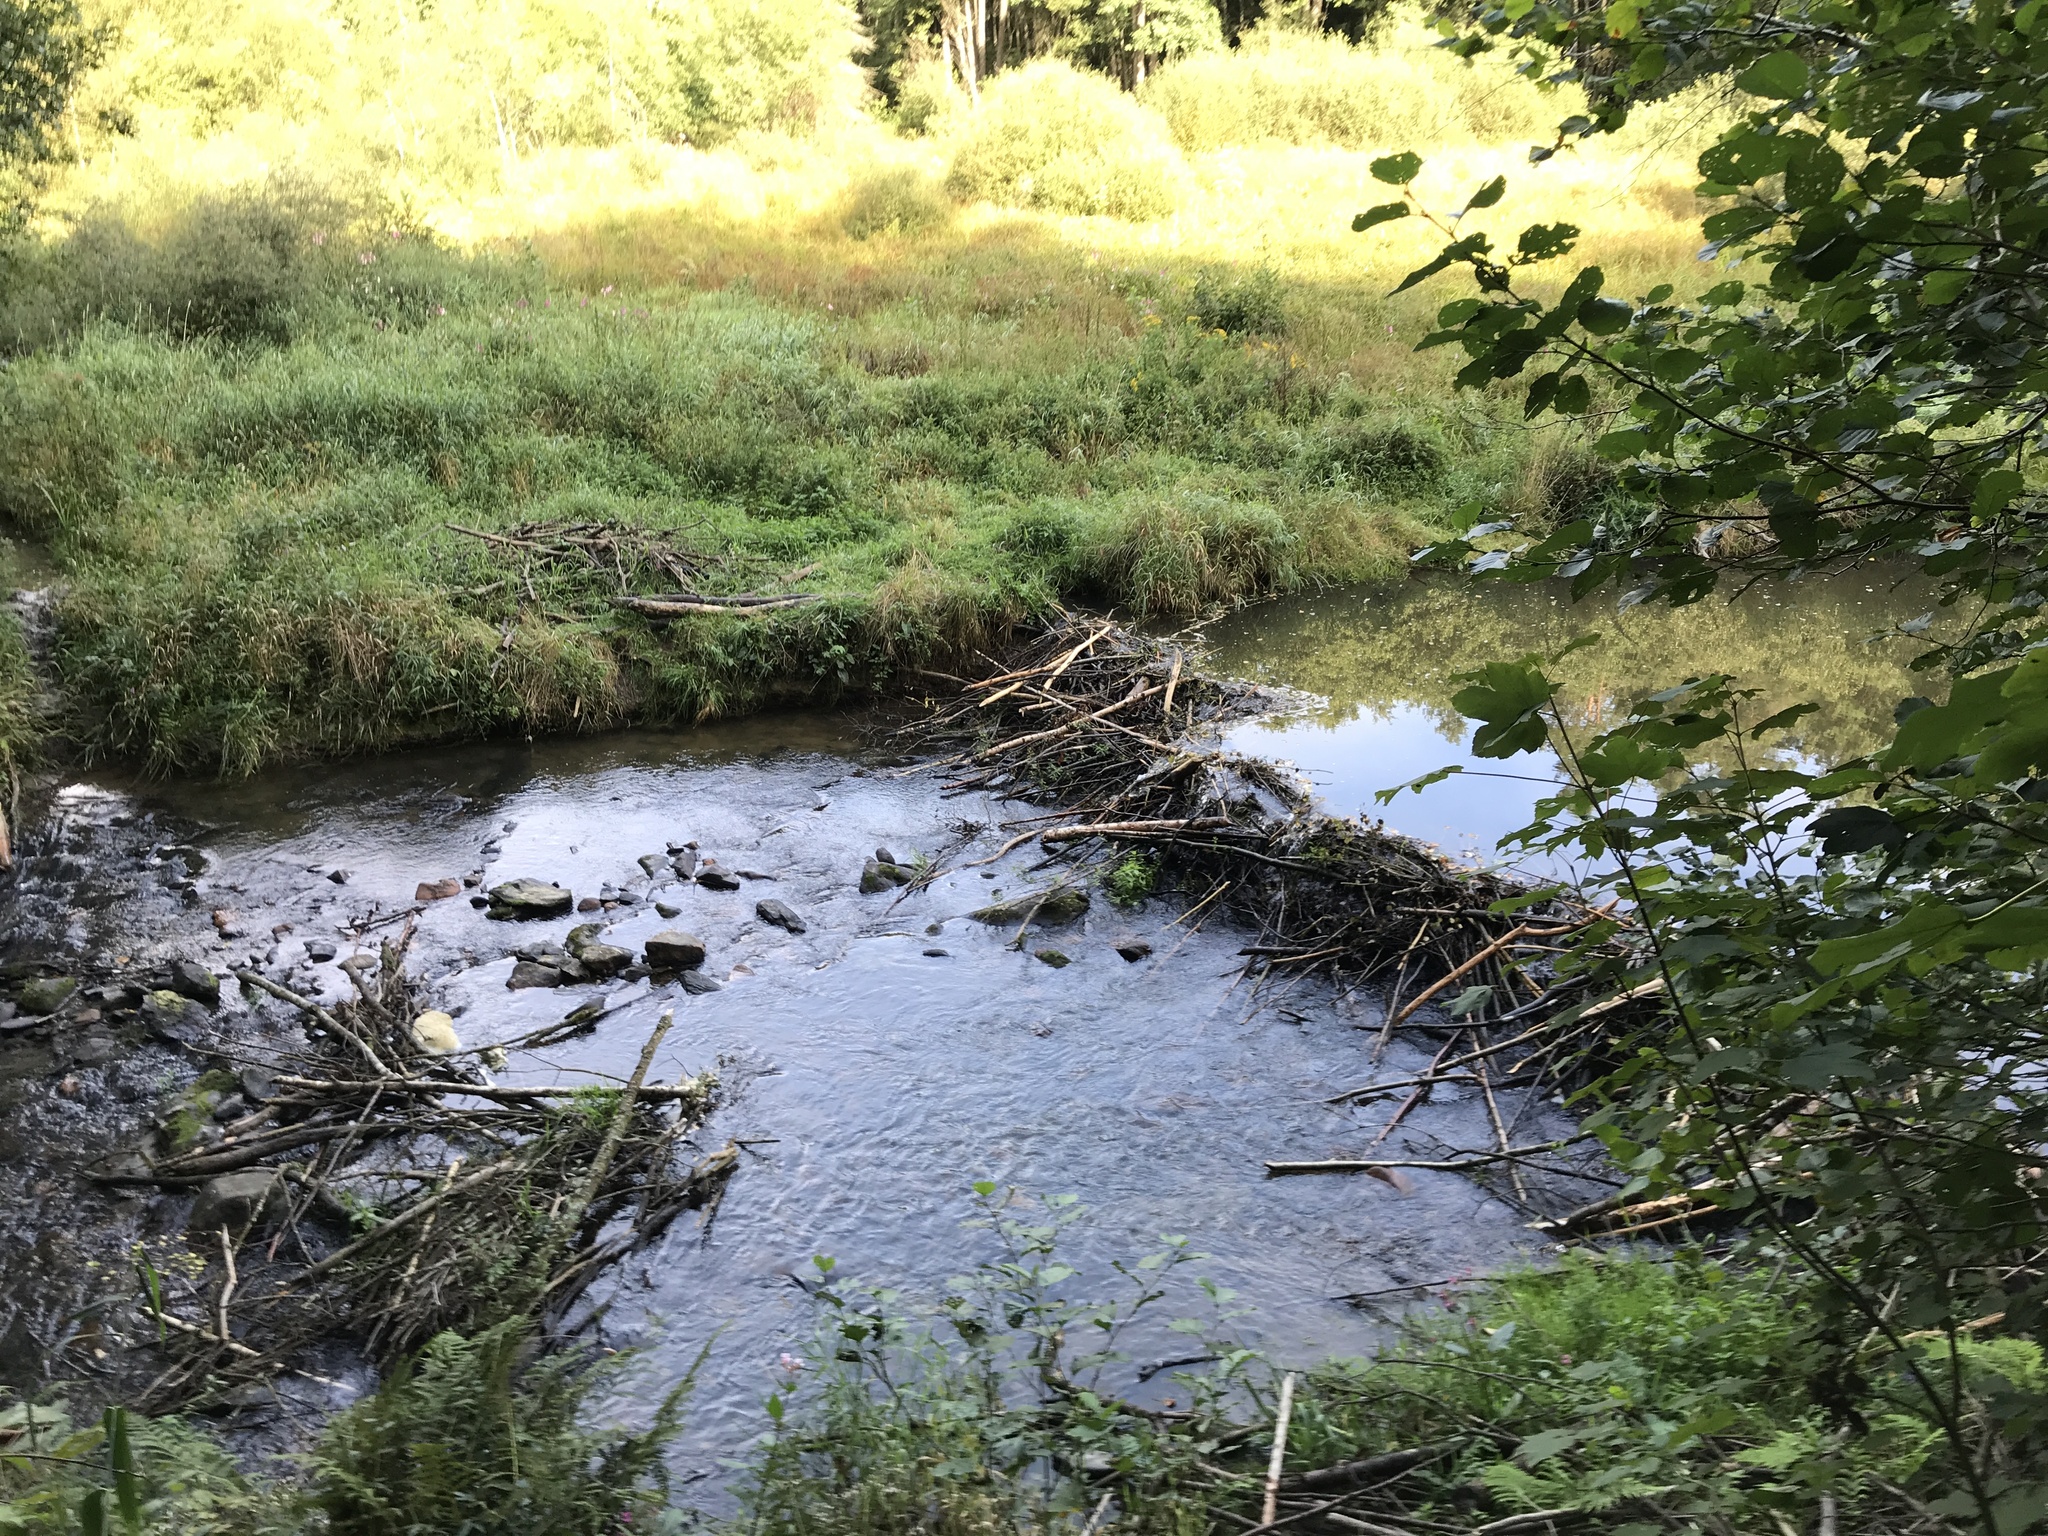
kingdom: Animalia
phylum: Chordata
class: Mammalia
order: Rodentia
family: Castoridae
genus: Castor
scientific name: Castor fiber
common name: Eurasian beaver
